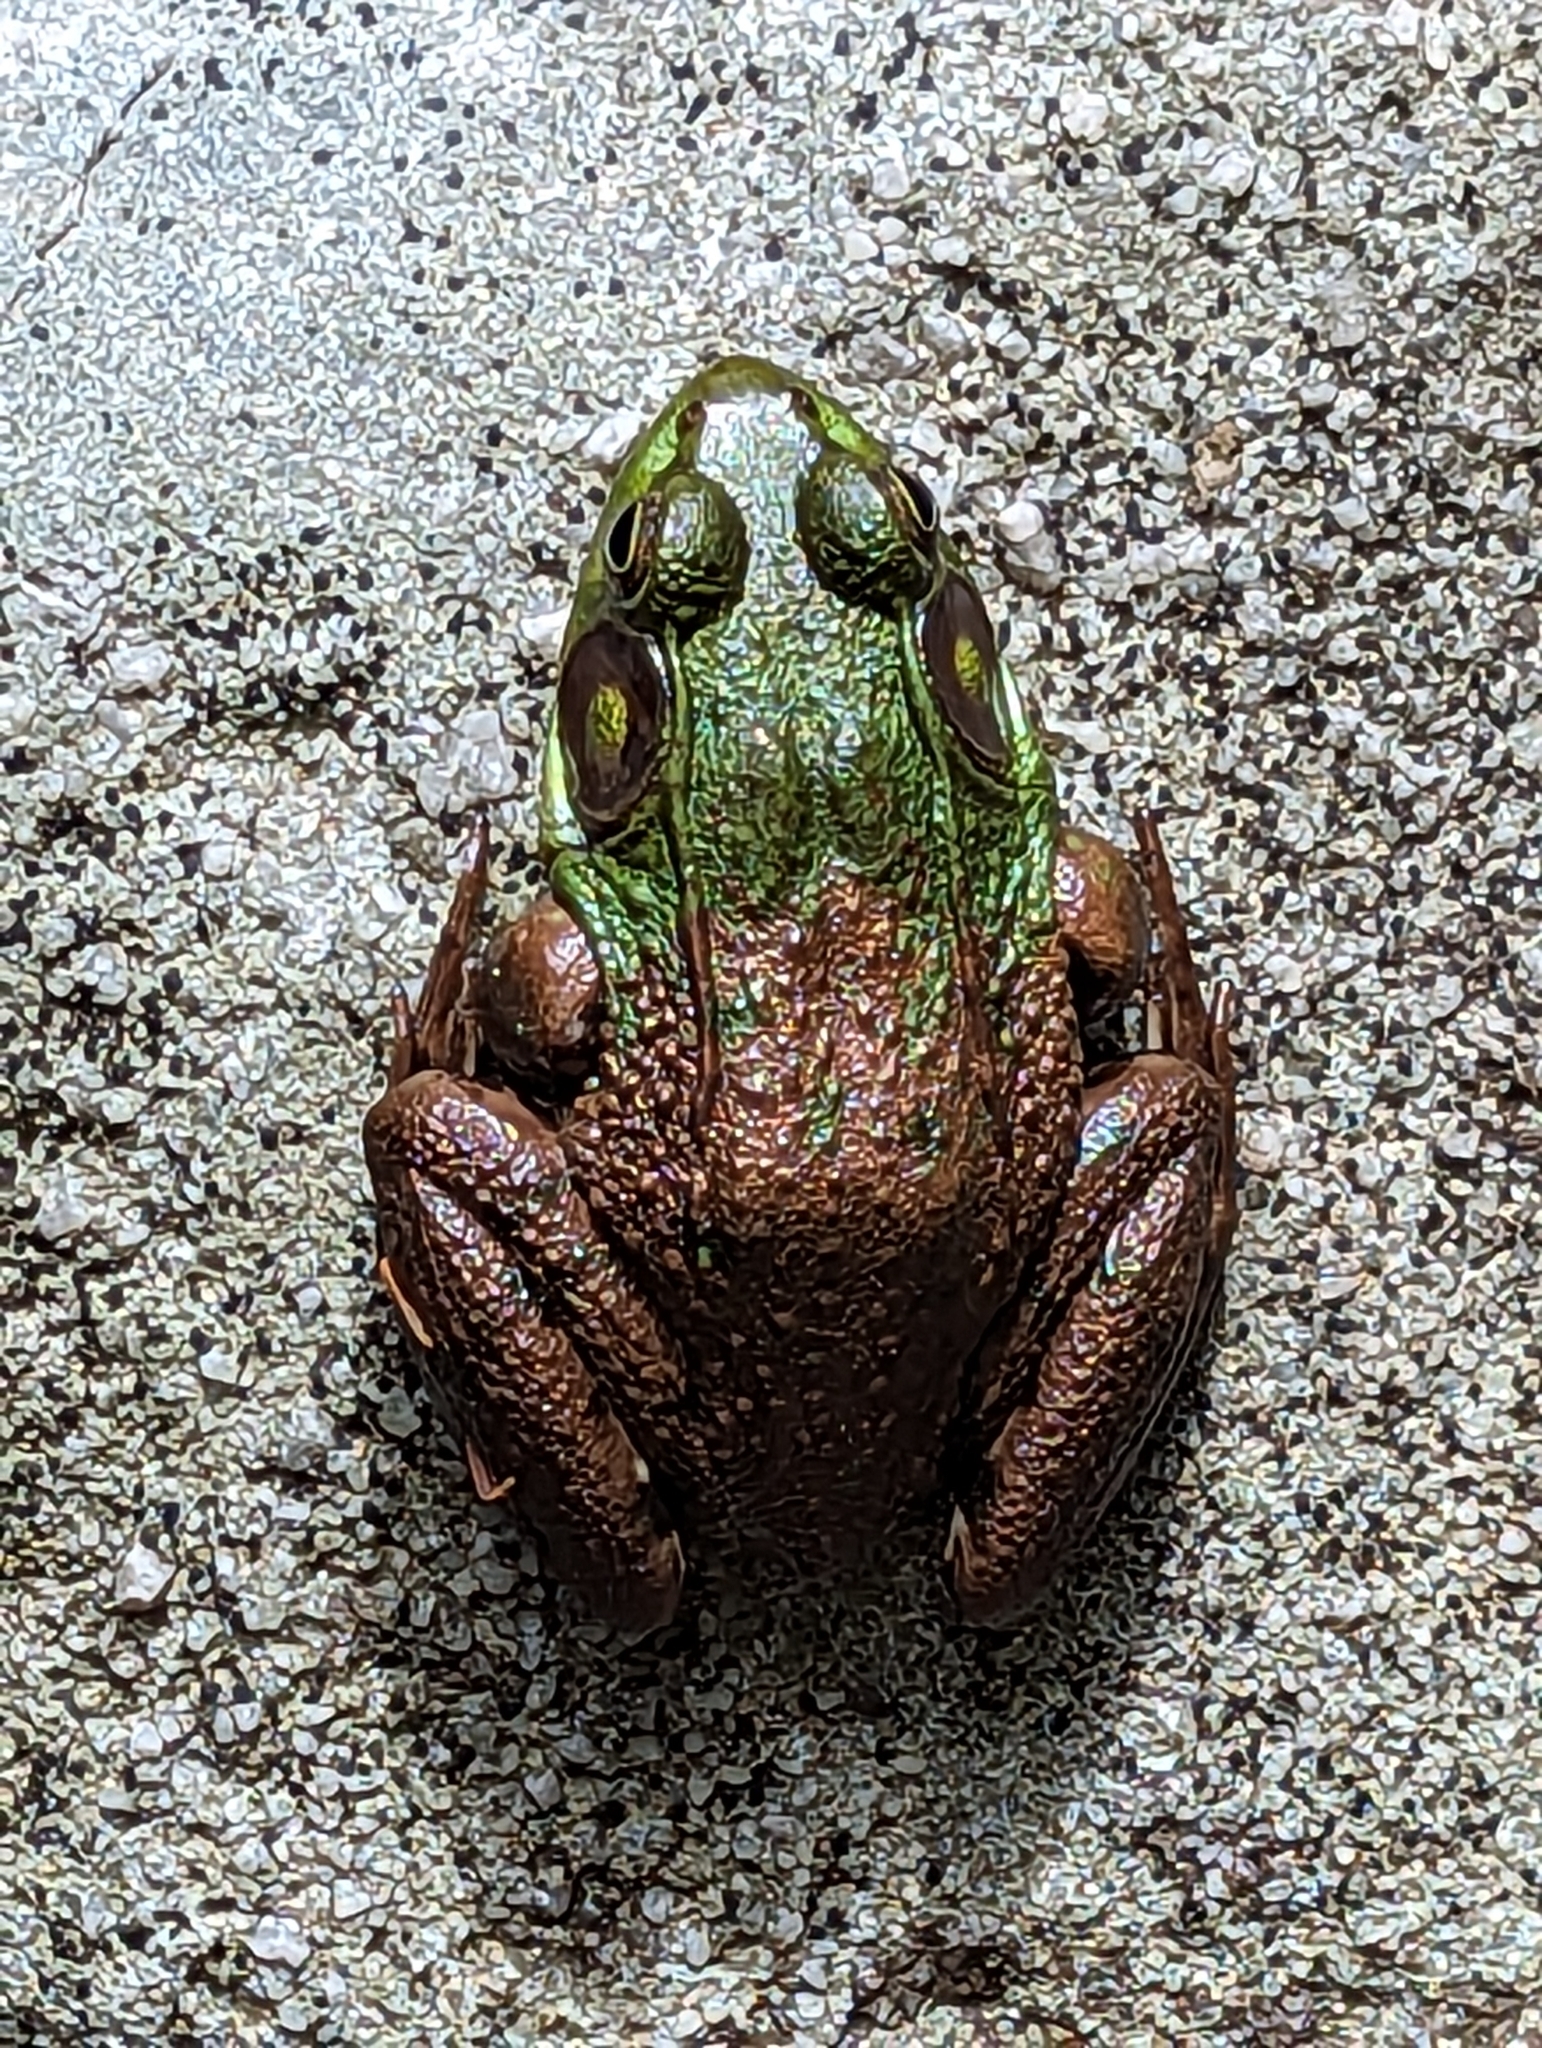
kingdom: Animalia
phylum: Chordata
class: Amphibia
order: Anura
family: Ranidae
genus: Lithobates
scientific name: Lithobates clamitans
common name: Green frog
